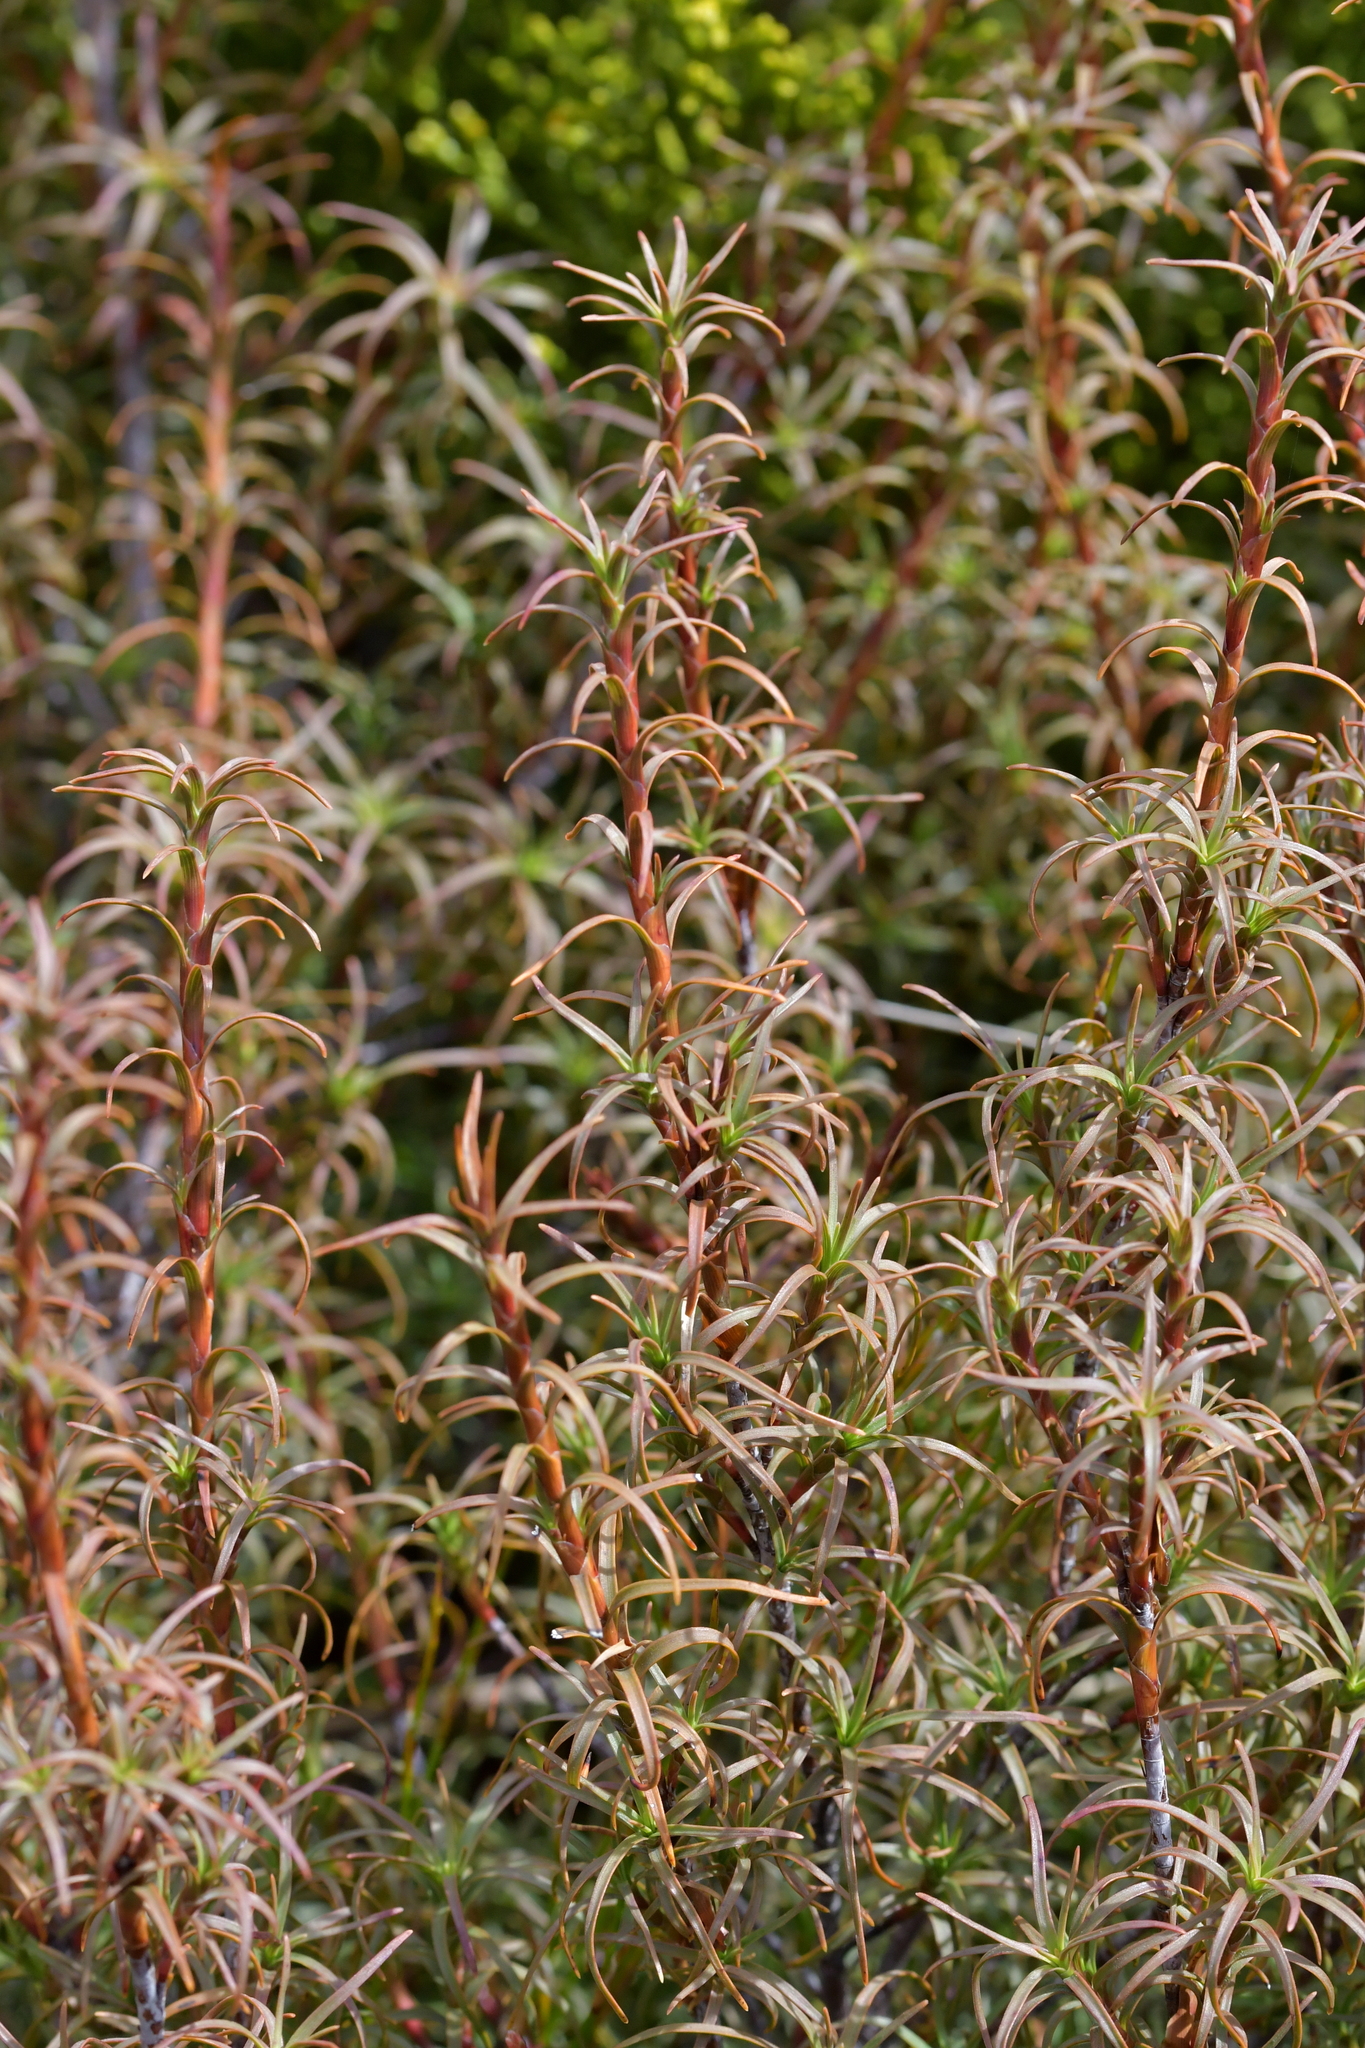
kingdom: Plantae
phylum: Tracheophyta
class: Magnoliopsida
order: Ericales
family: Ericaceae
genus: Dracophyllum
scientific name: Dracophyllum recurvum
